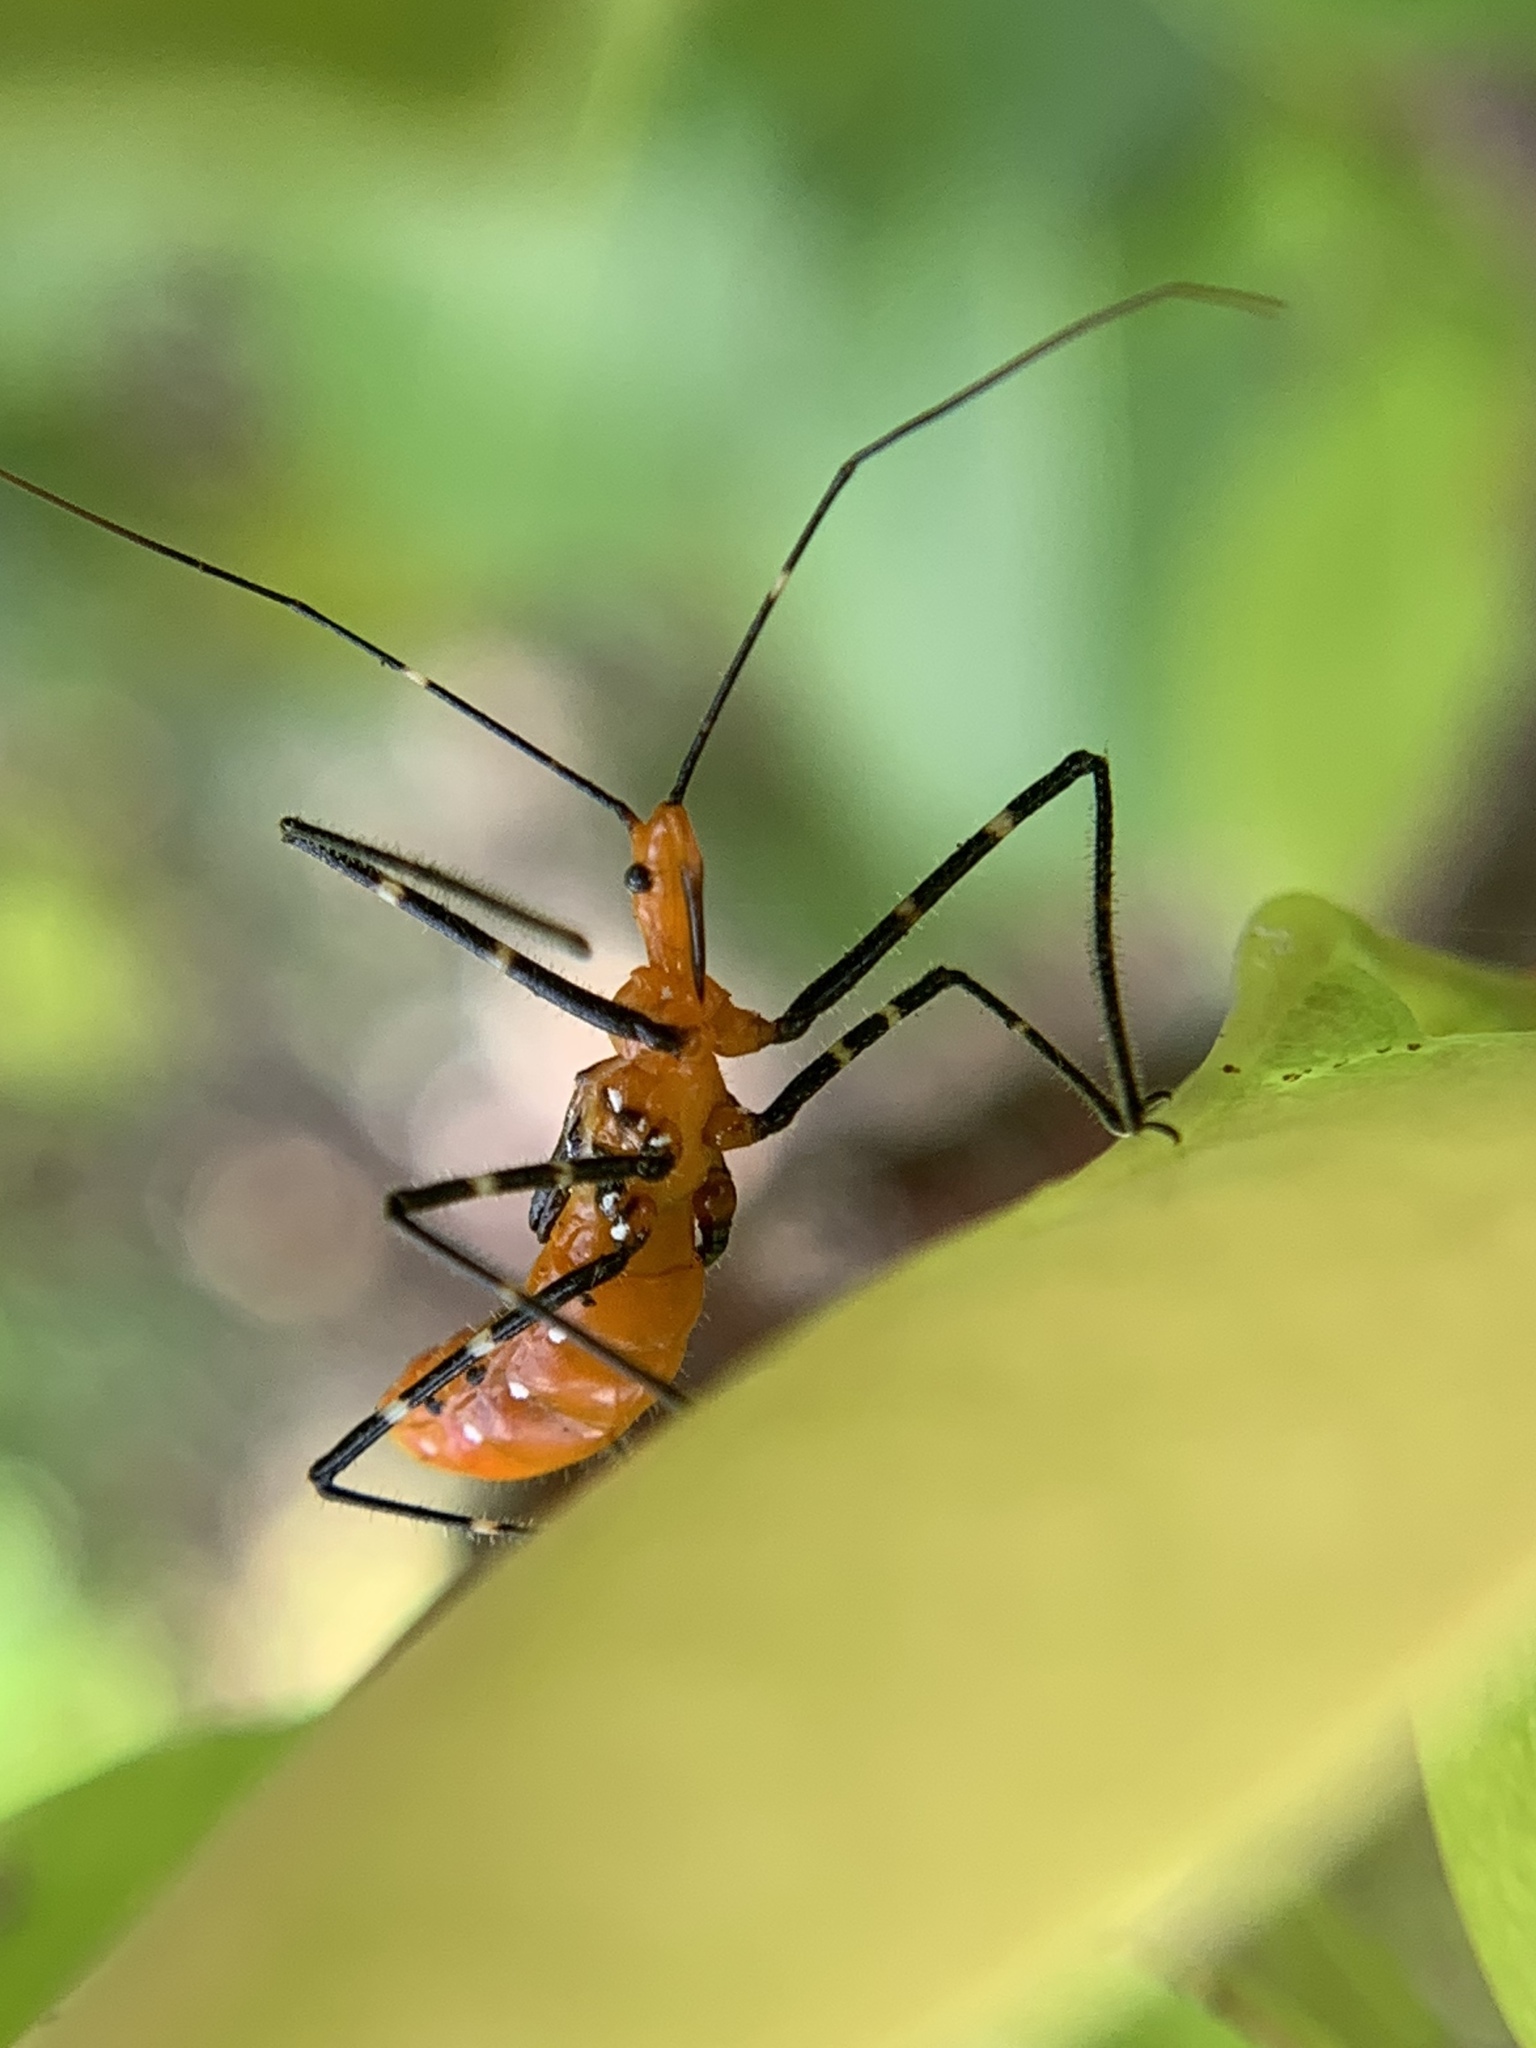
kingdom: Animalia
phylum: Arthropoda
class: Insecta
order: Hemiptera
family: Reduviidae
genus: Zelus
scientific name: Zelus longipes
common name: Milkweed assassin bug
